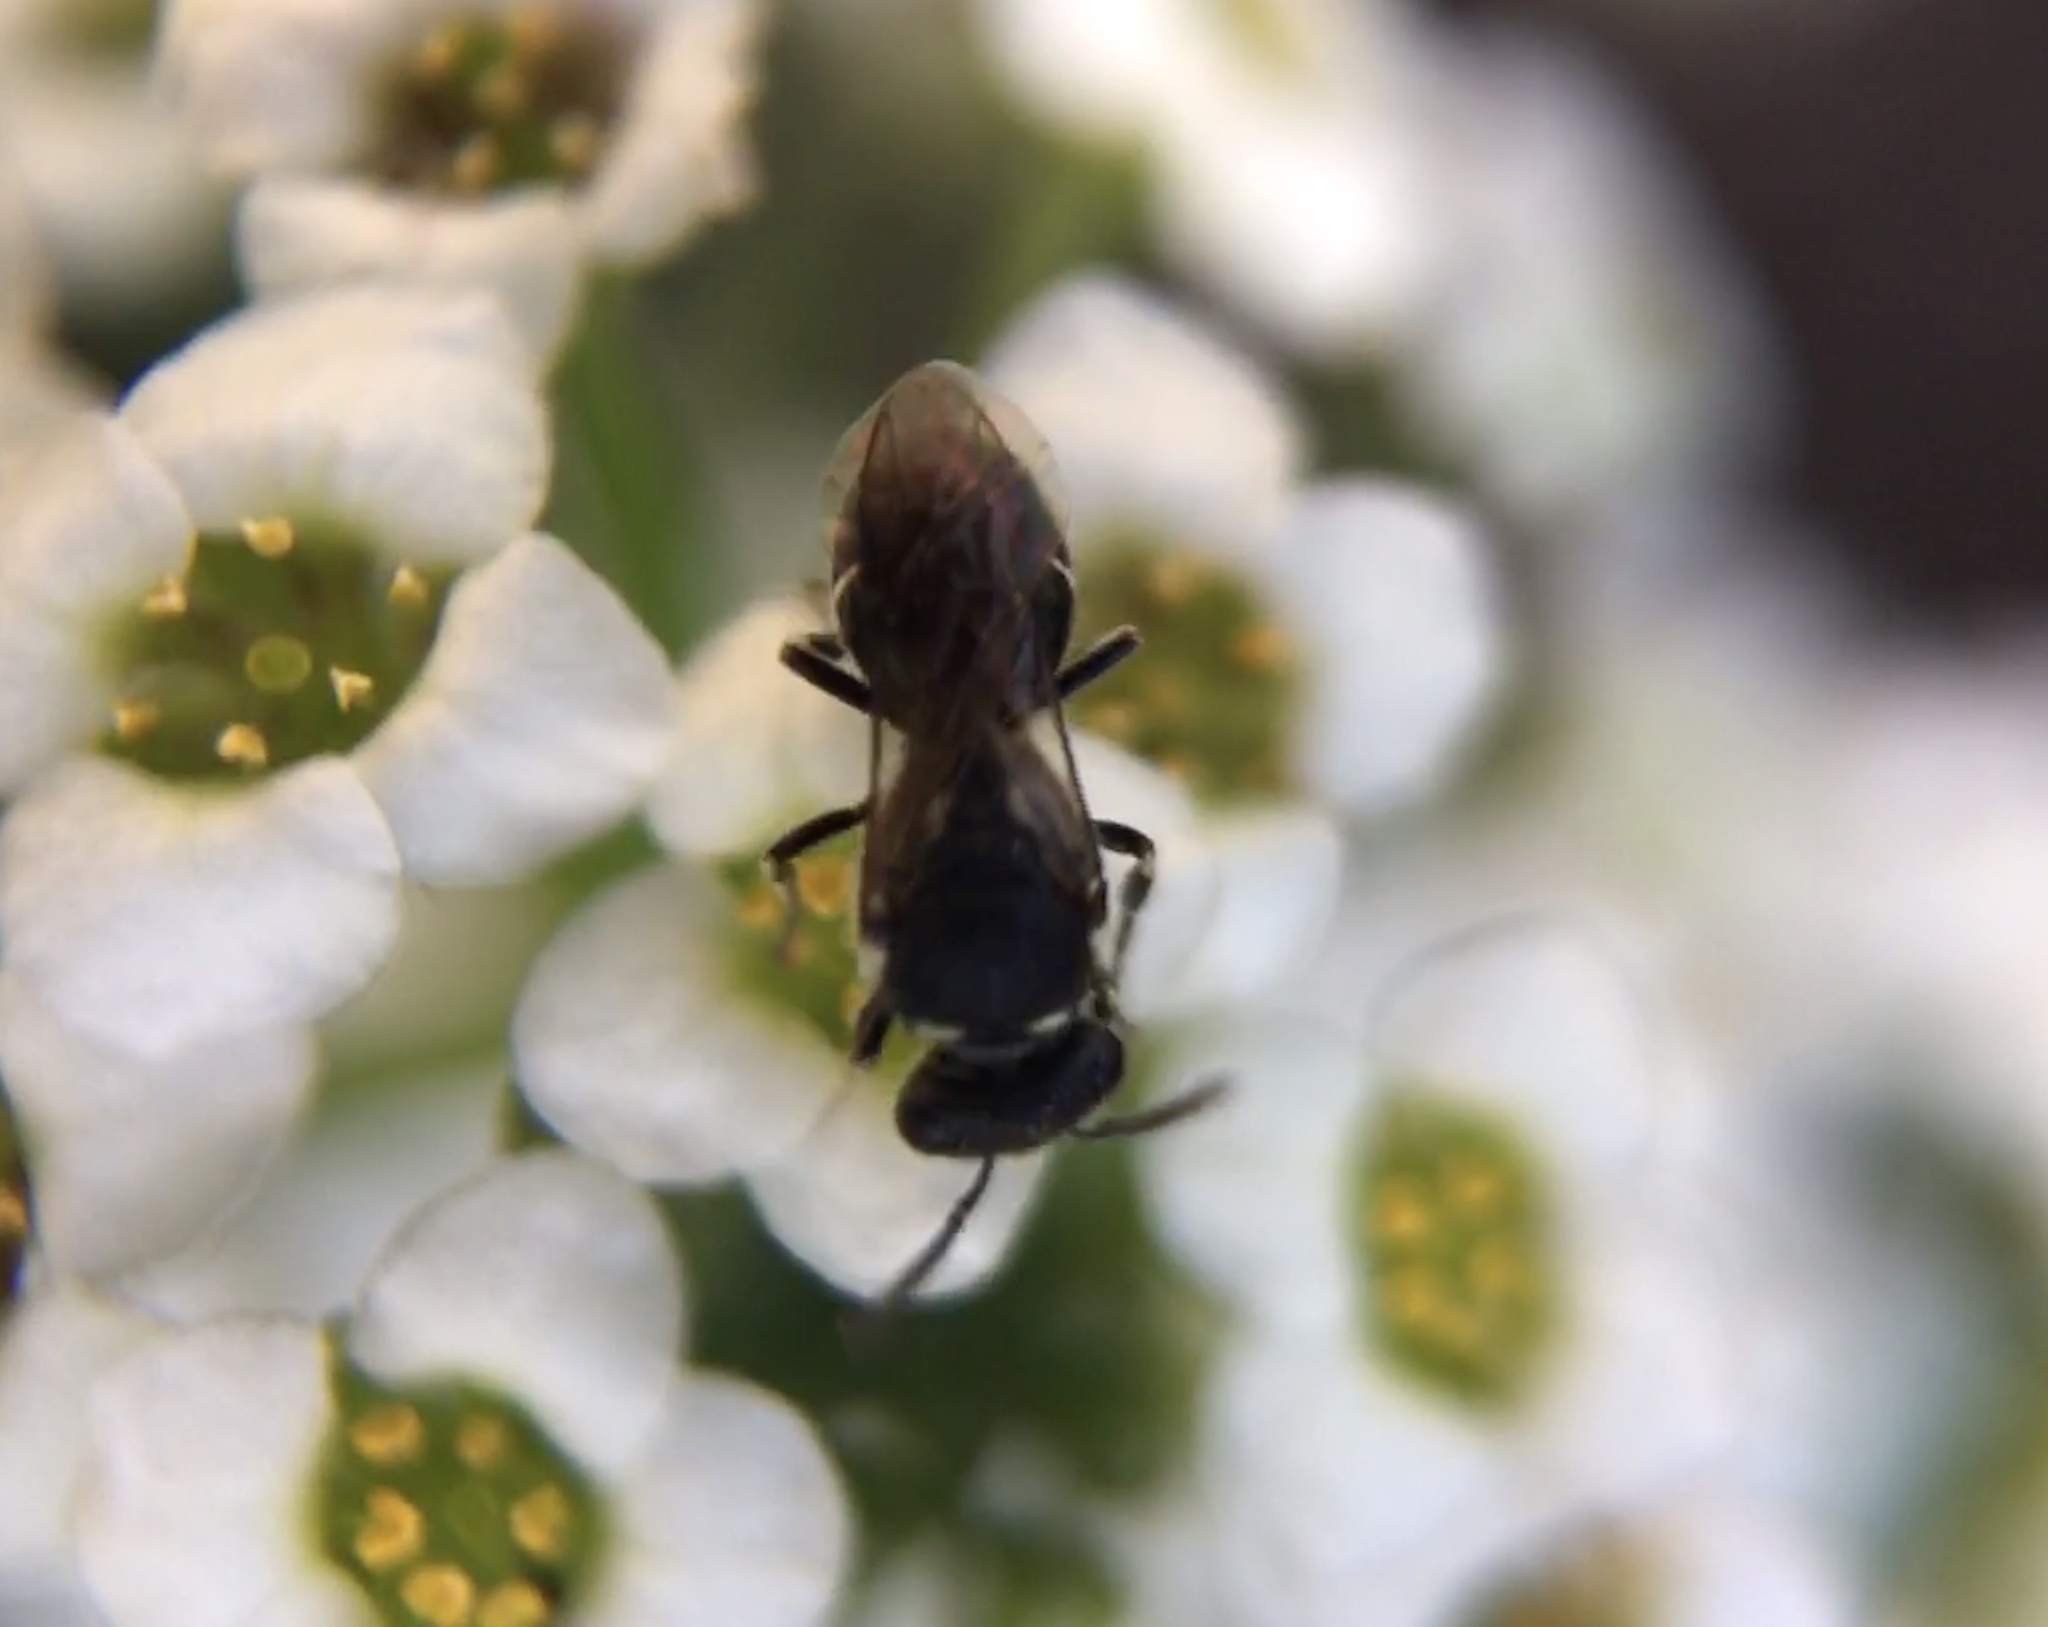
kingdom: Animalia
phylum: Arthropoda
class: Insecta
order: Hymenoptera
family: Colletidae
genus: Hylaeus
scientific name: Hylaeus
